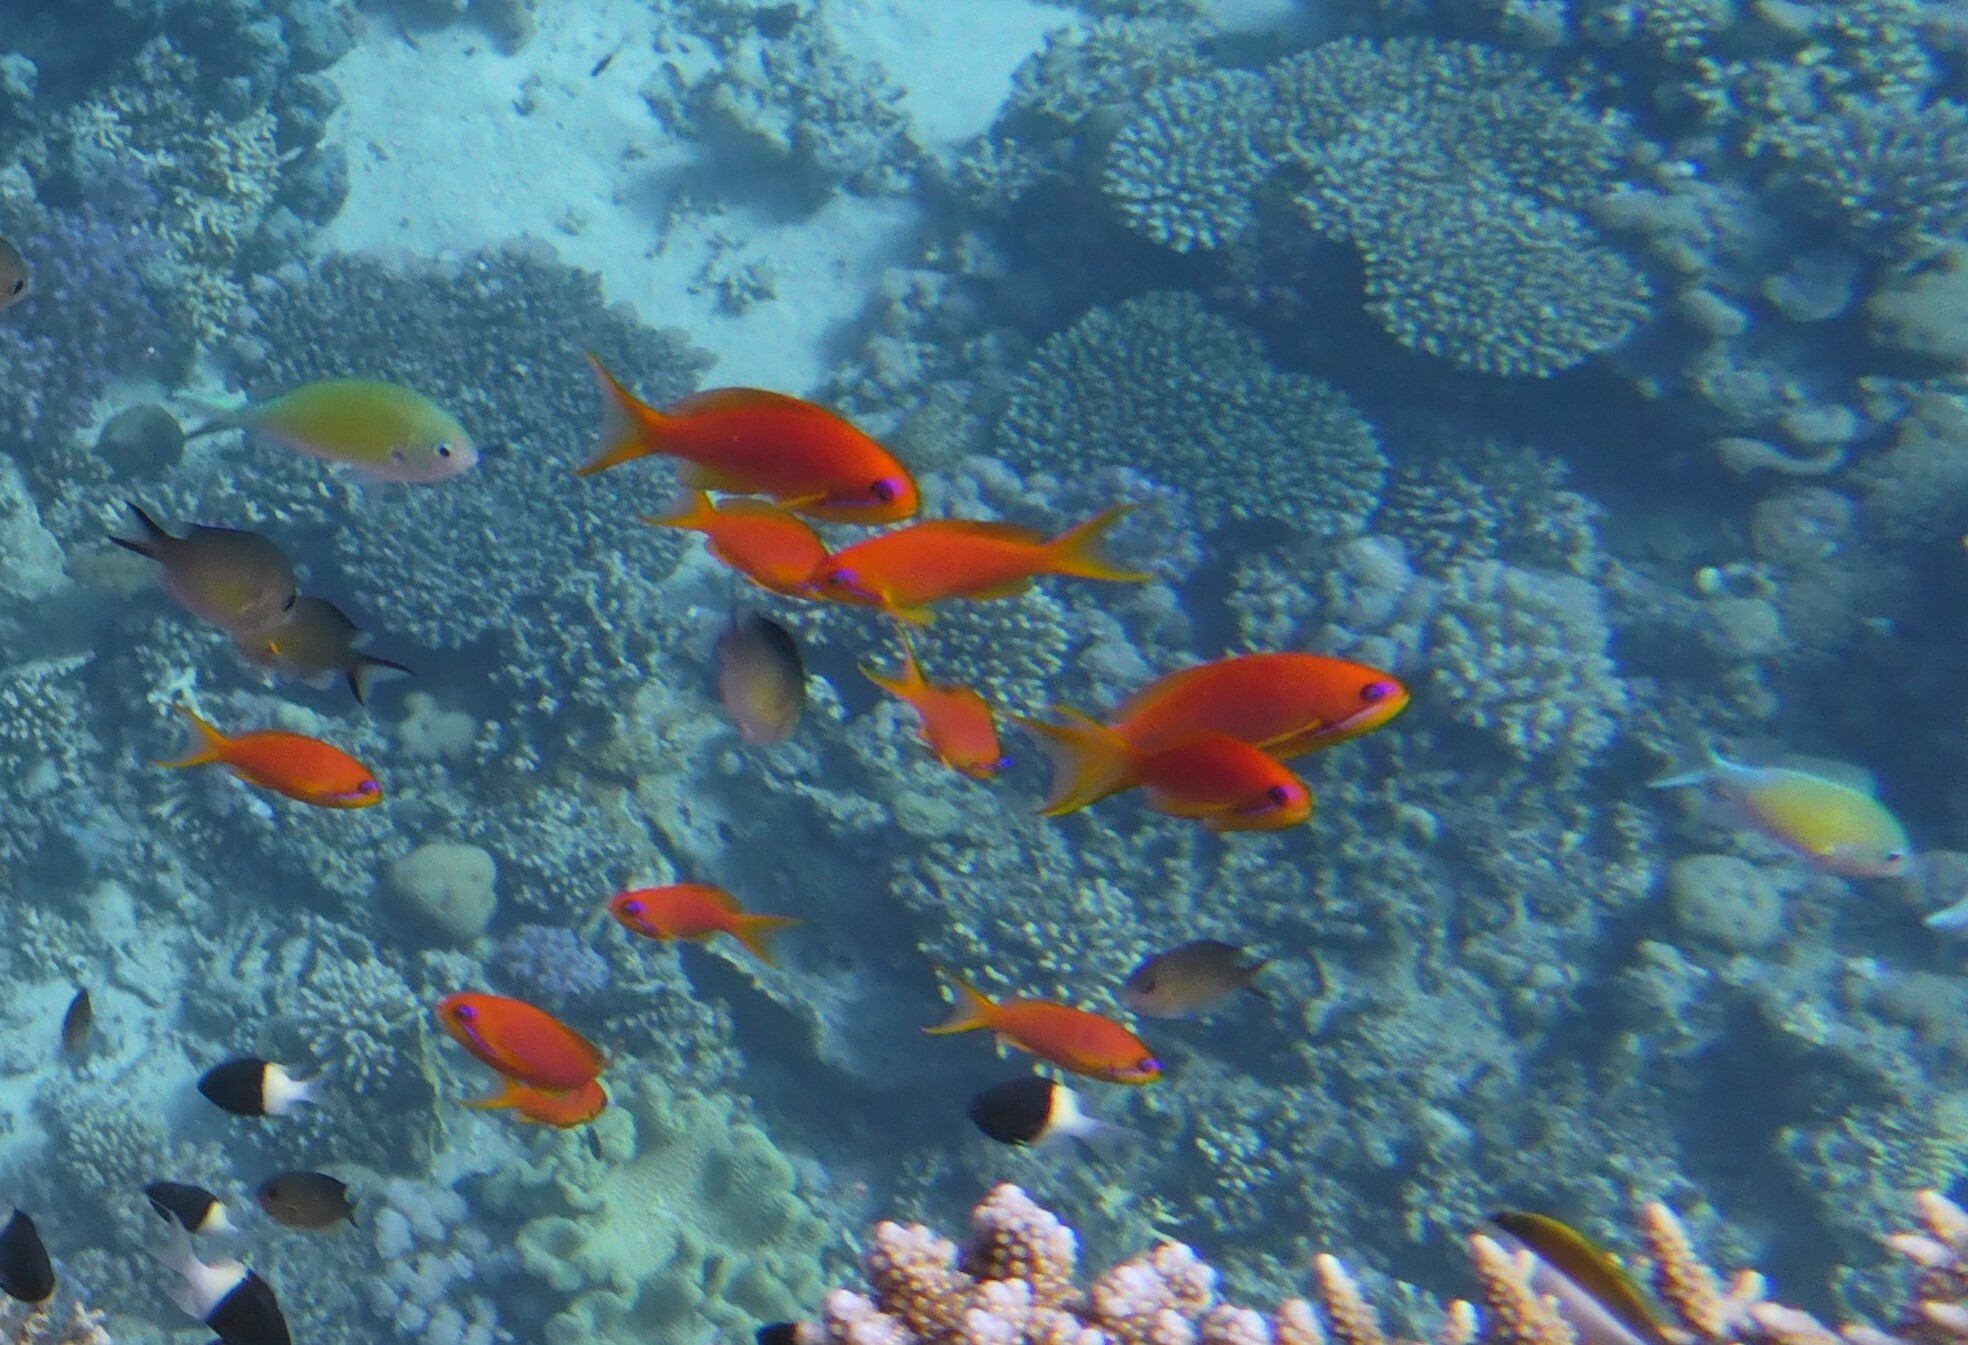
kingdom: Animalia
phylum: Chordata
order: Perciformes
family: Serranidae
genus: Pseudanthias
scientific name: Pseudanthias squamipinnis
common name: Scalefin anthias
